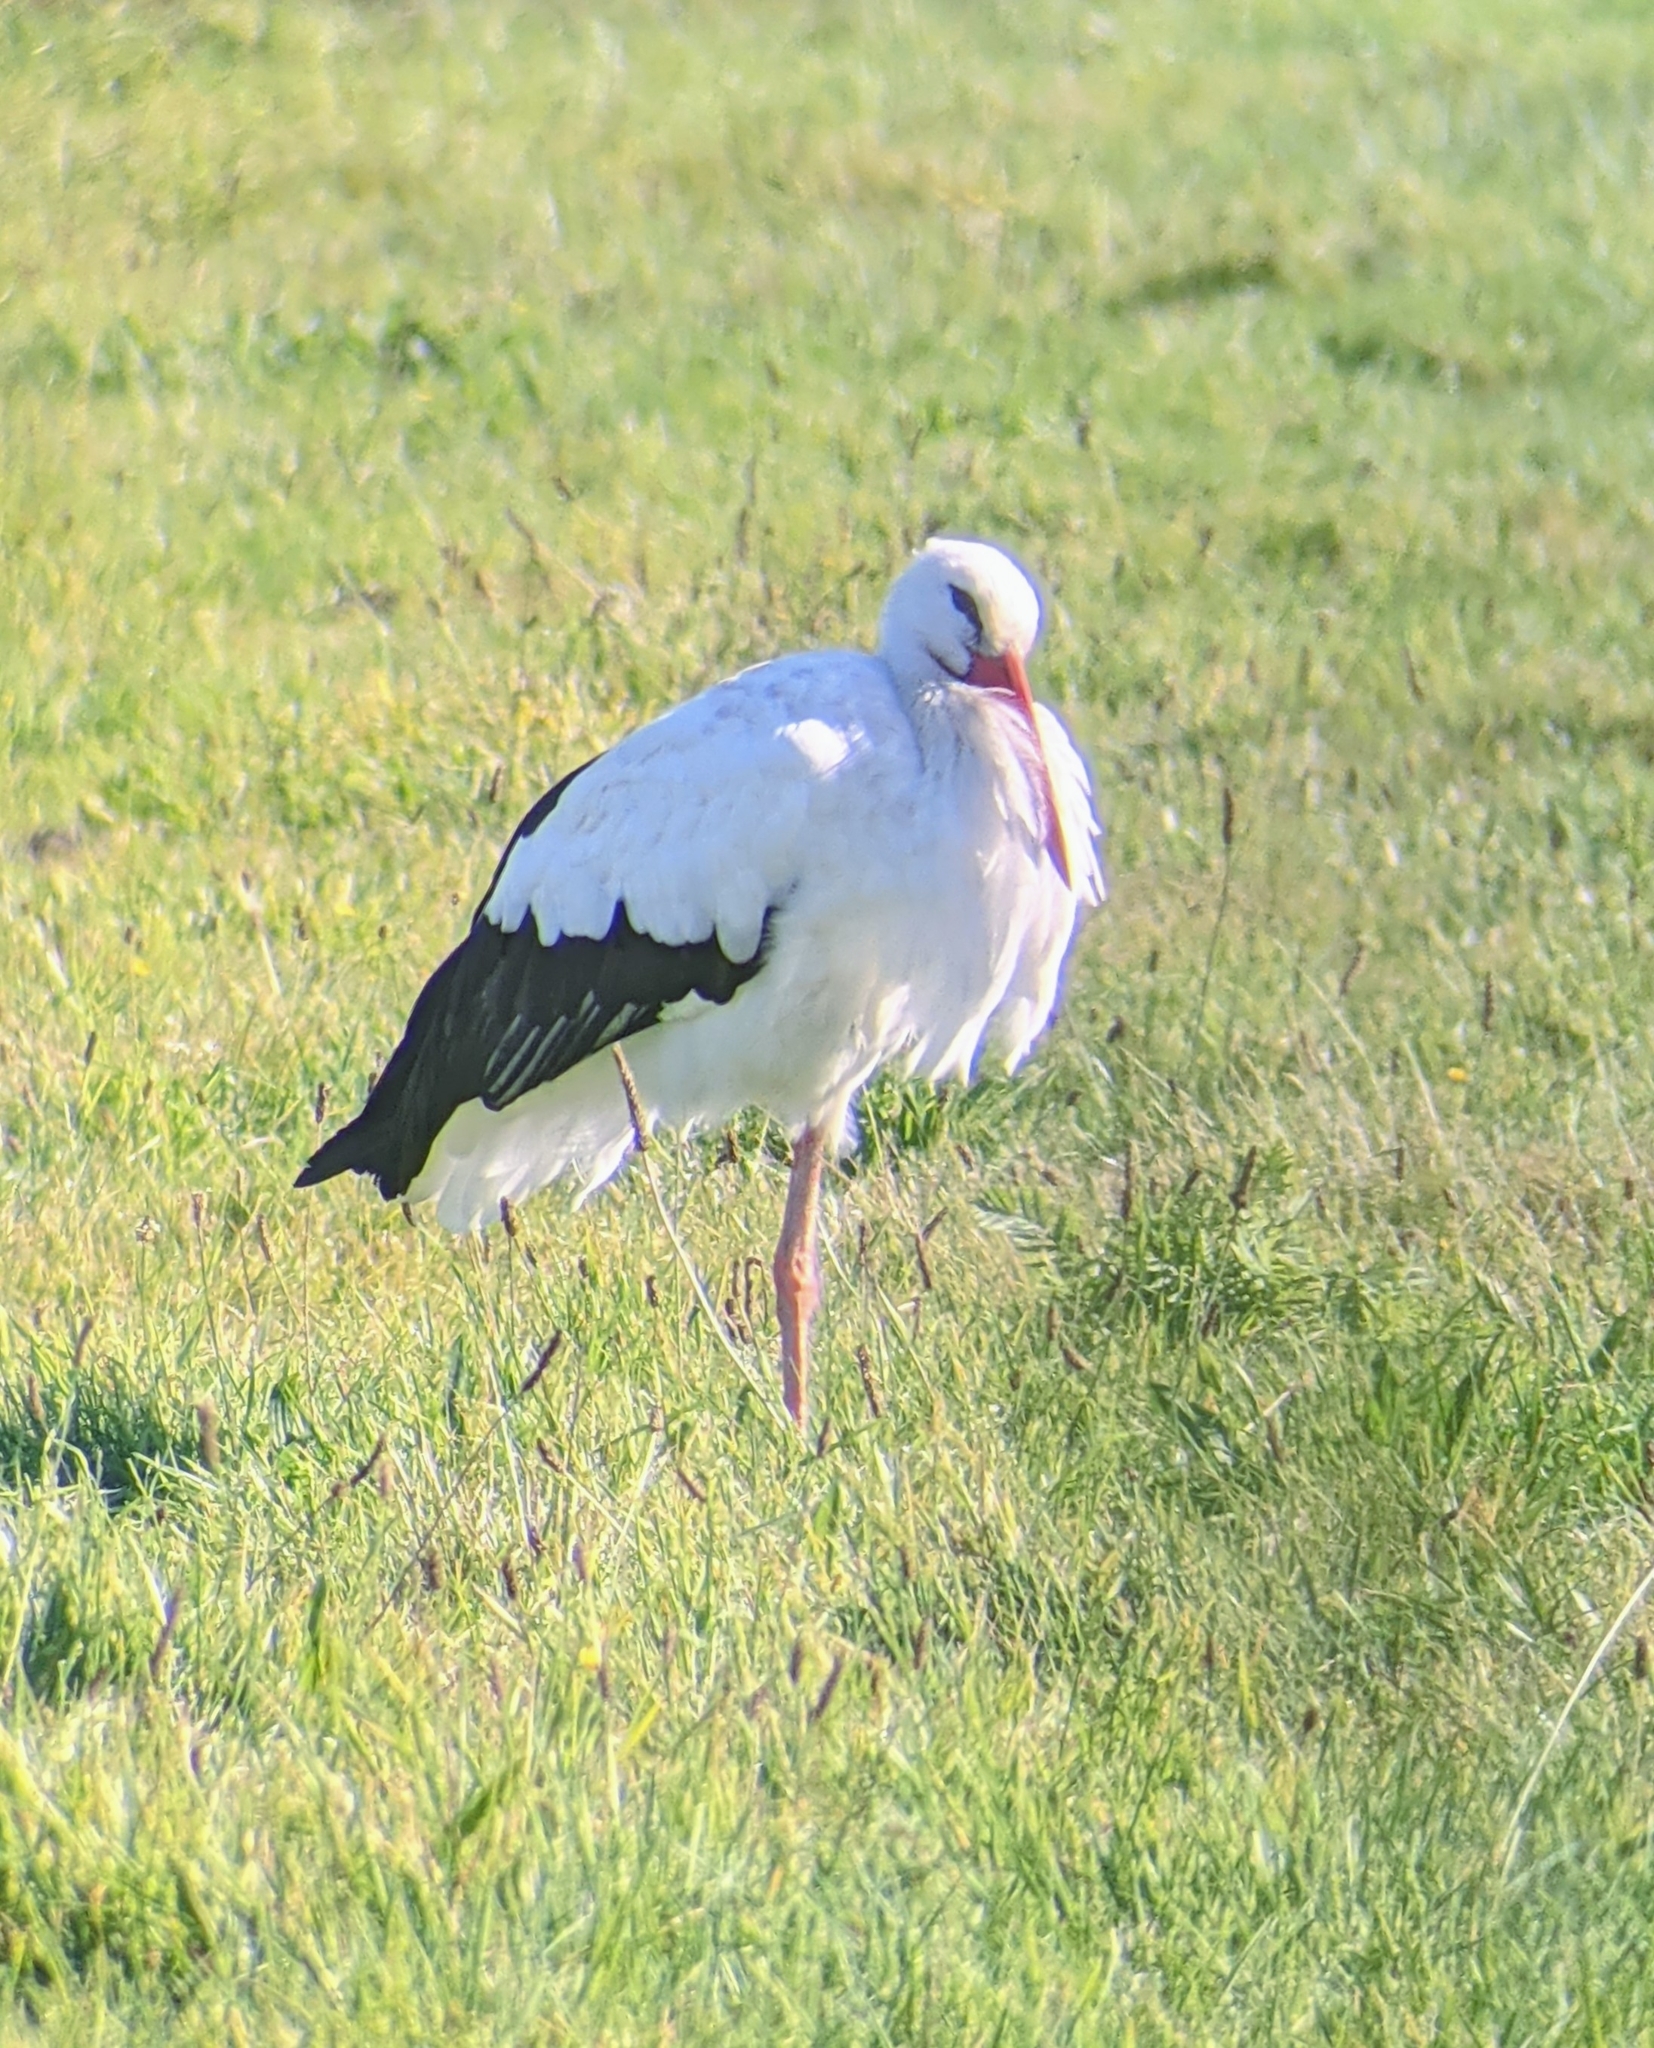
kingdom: Animalia
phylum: Chordata
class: Aves
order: Ciconiiformes
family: Ciconiidae
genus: Ciconia
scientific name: Ciconia ciconia
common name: White stork
